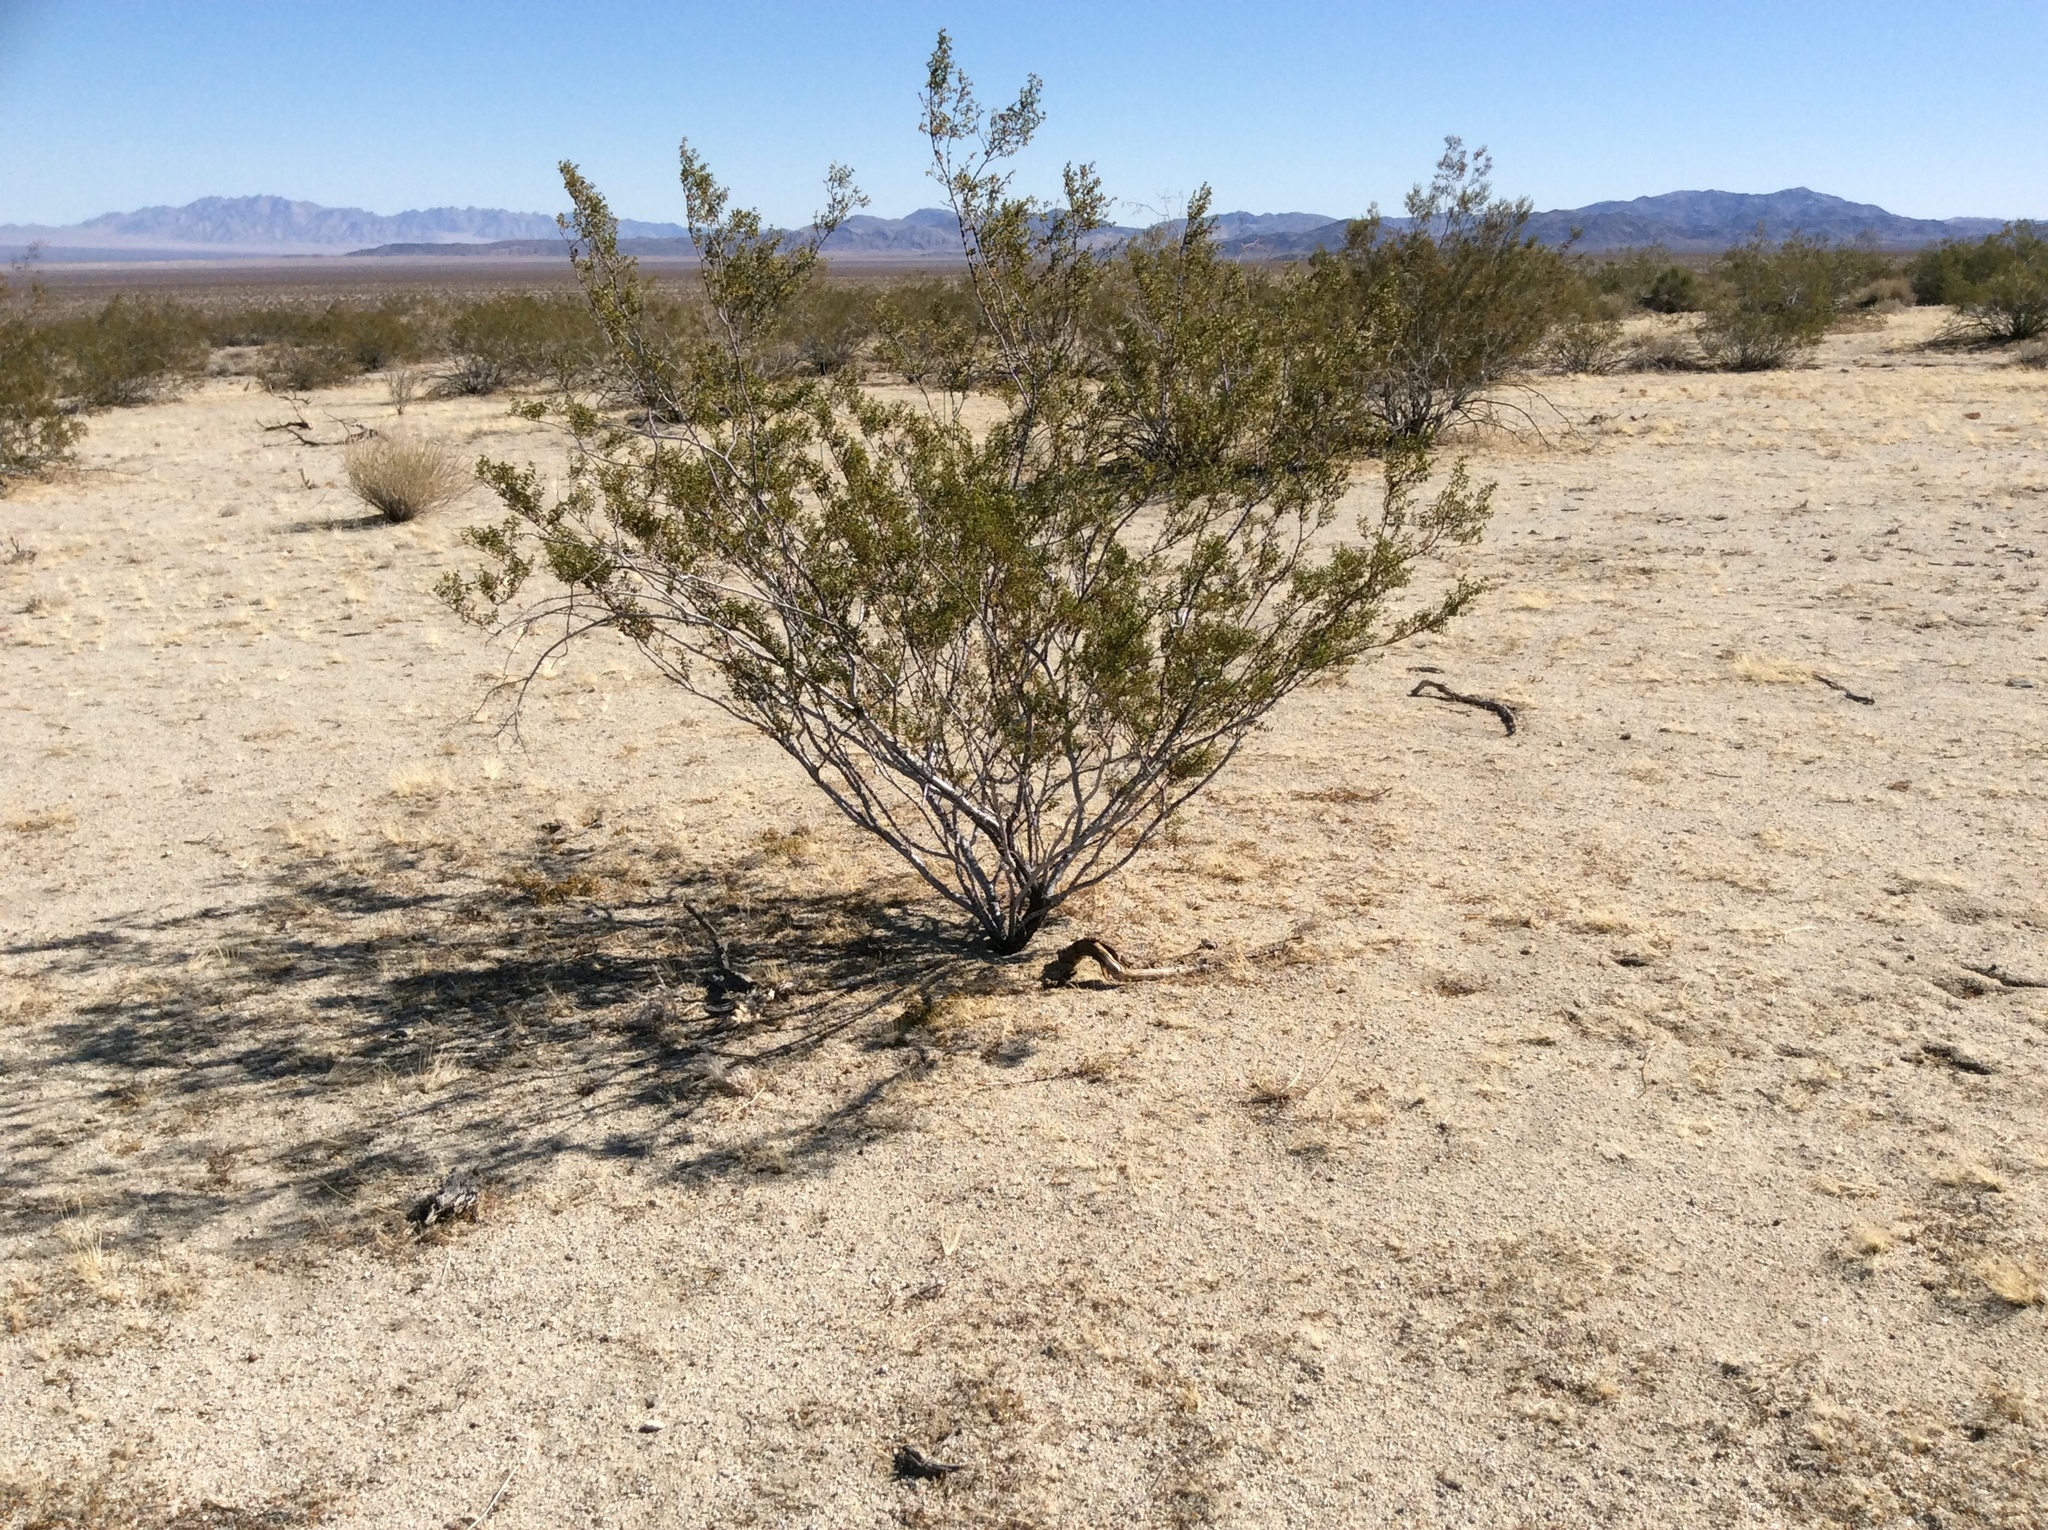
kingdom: Plantae
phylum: Tracheophyta
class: Magnoliopsida
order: Zygophyllales
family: Zygophyllaceae
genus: Larrea
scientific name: Larrea tridentata
